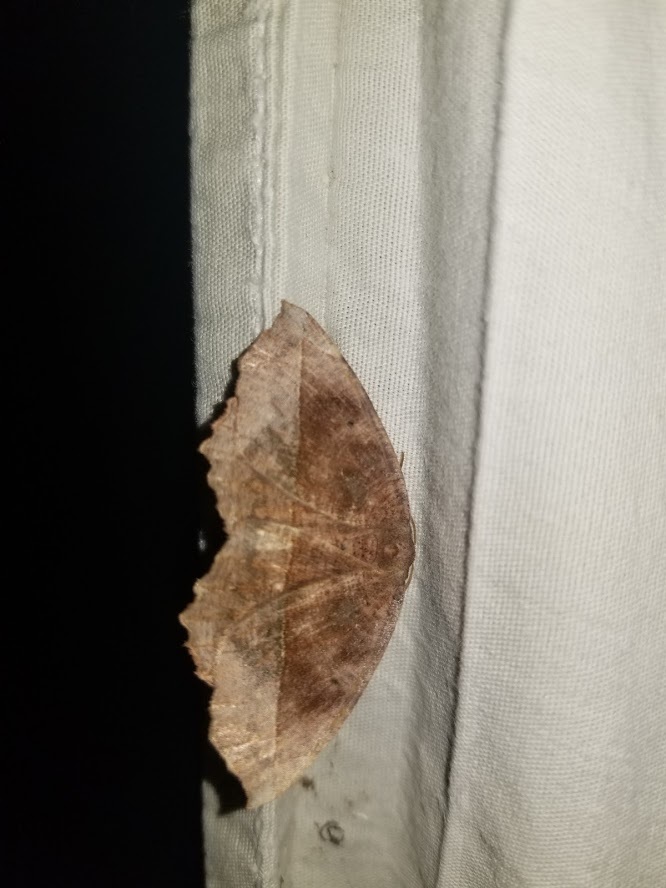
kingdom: Animalia
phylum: Arthropoda
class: Insecta
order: Lepidoptera
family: Geometridae
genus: Eutrapela
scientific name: Eutrapela clemataria
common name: Curved-toothed geometer
